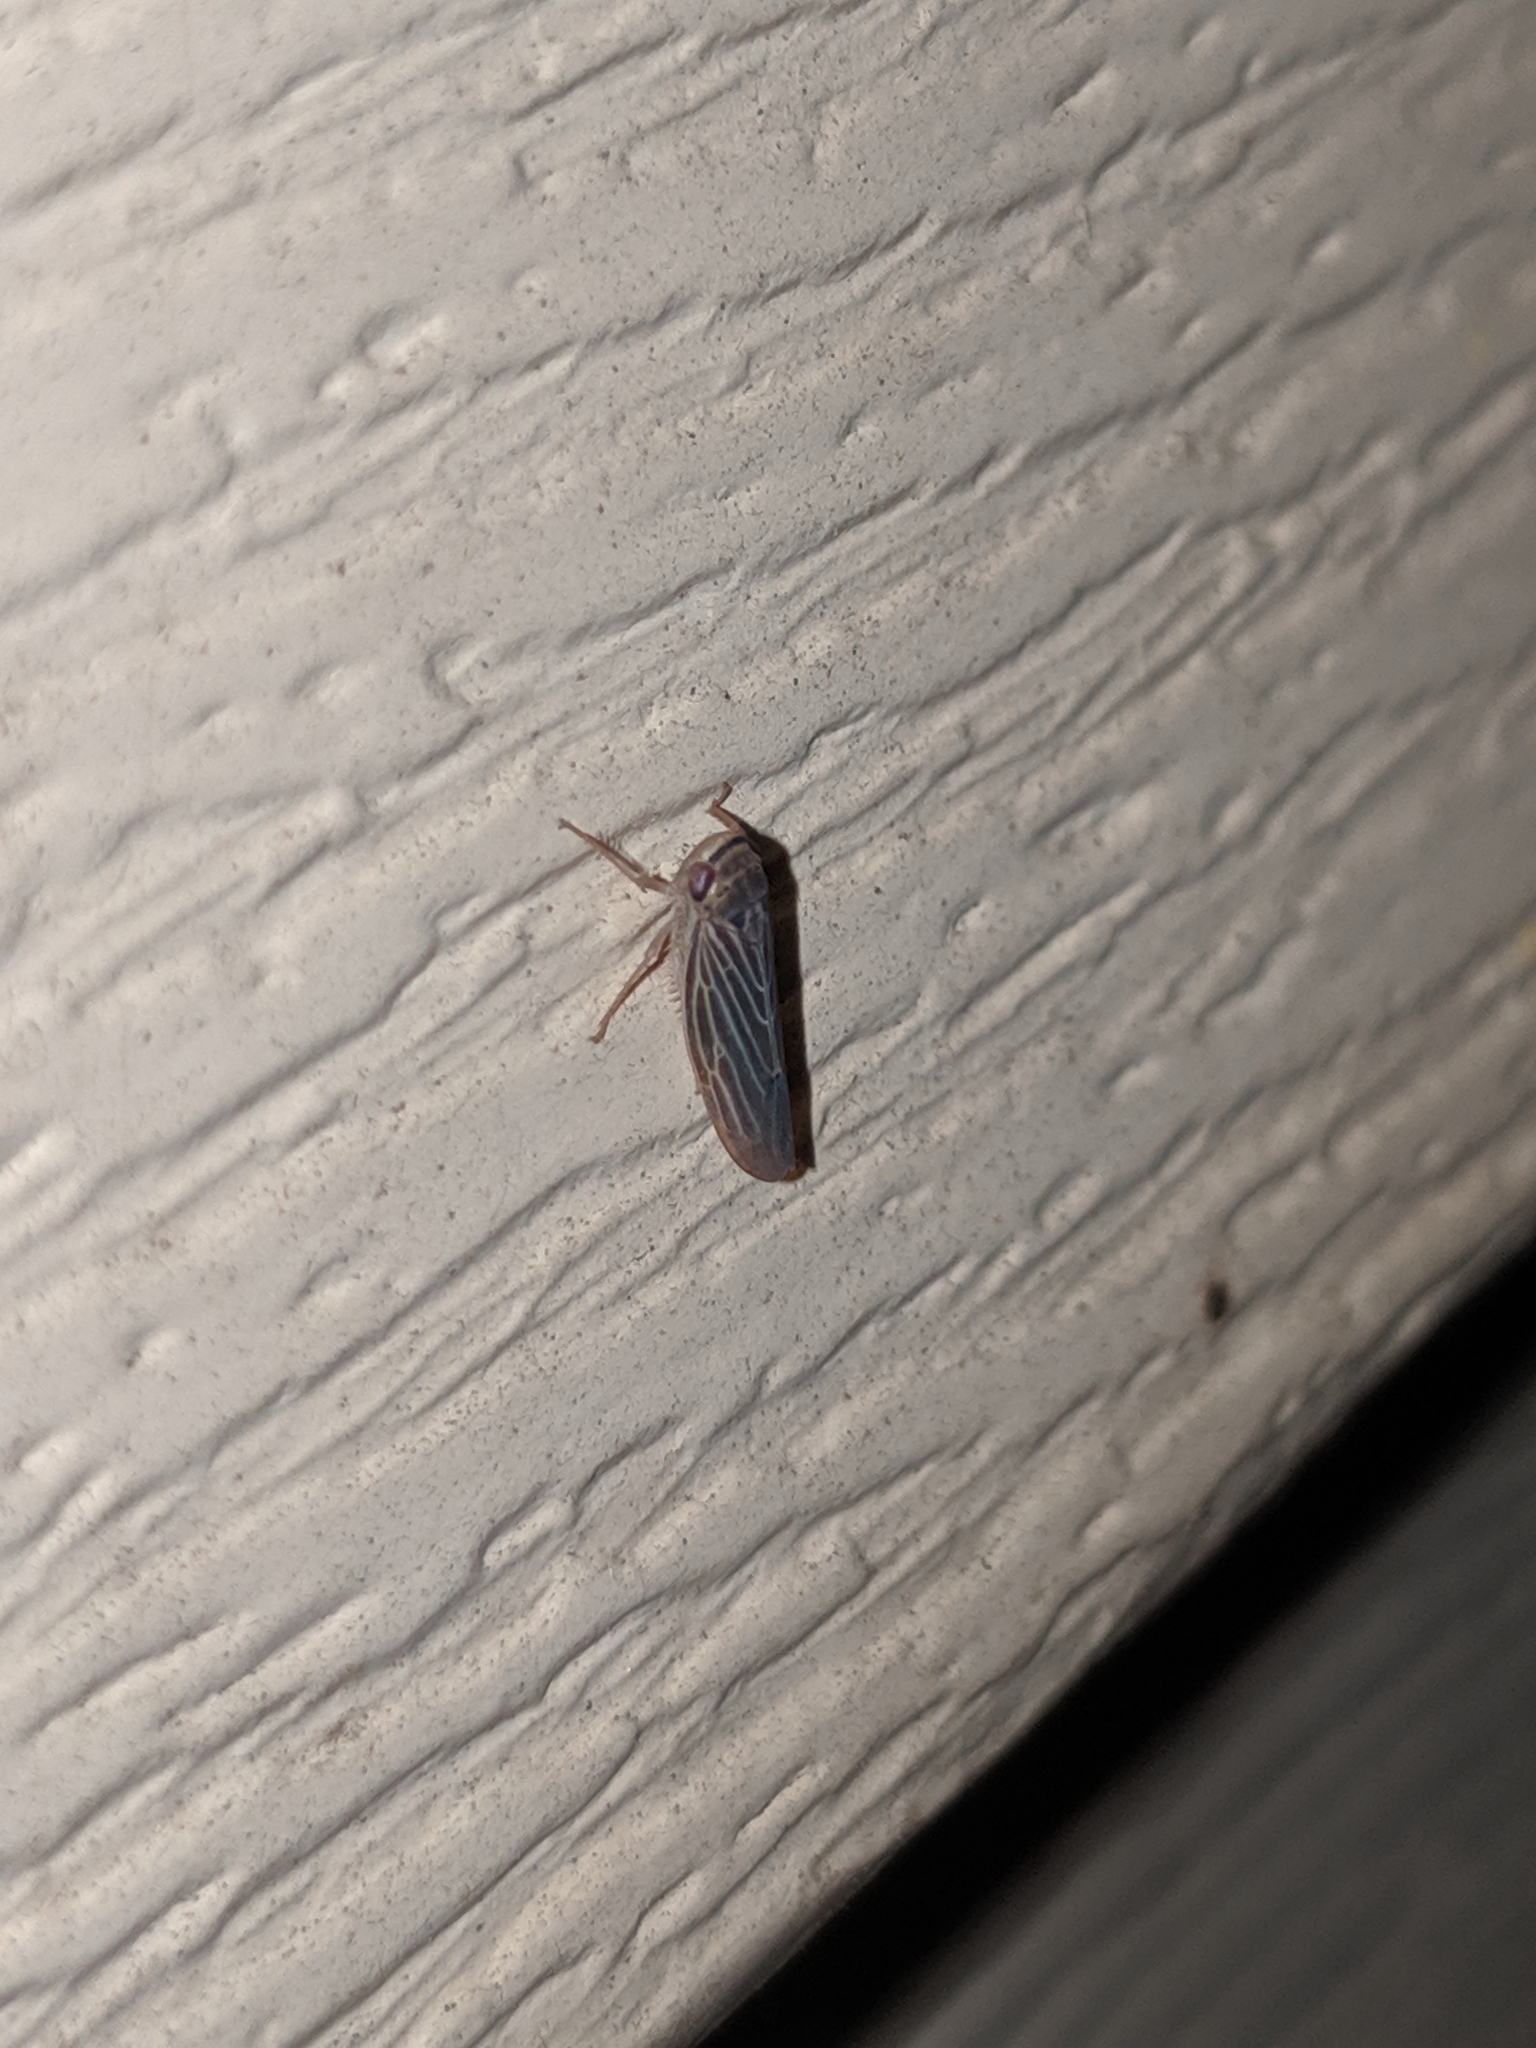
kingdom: Animalia
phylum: Arthropoda
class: Insecta
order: Hemiptera
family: Cicadellidae
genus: Chlorotettix
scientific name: Chlorotettix necopinus
